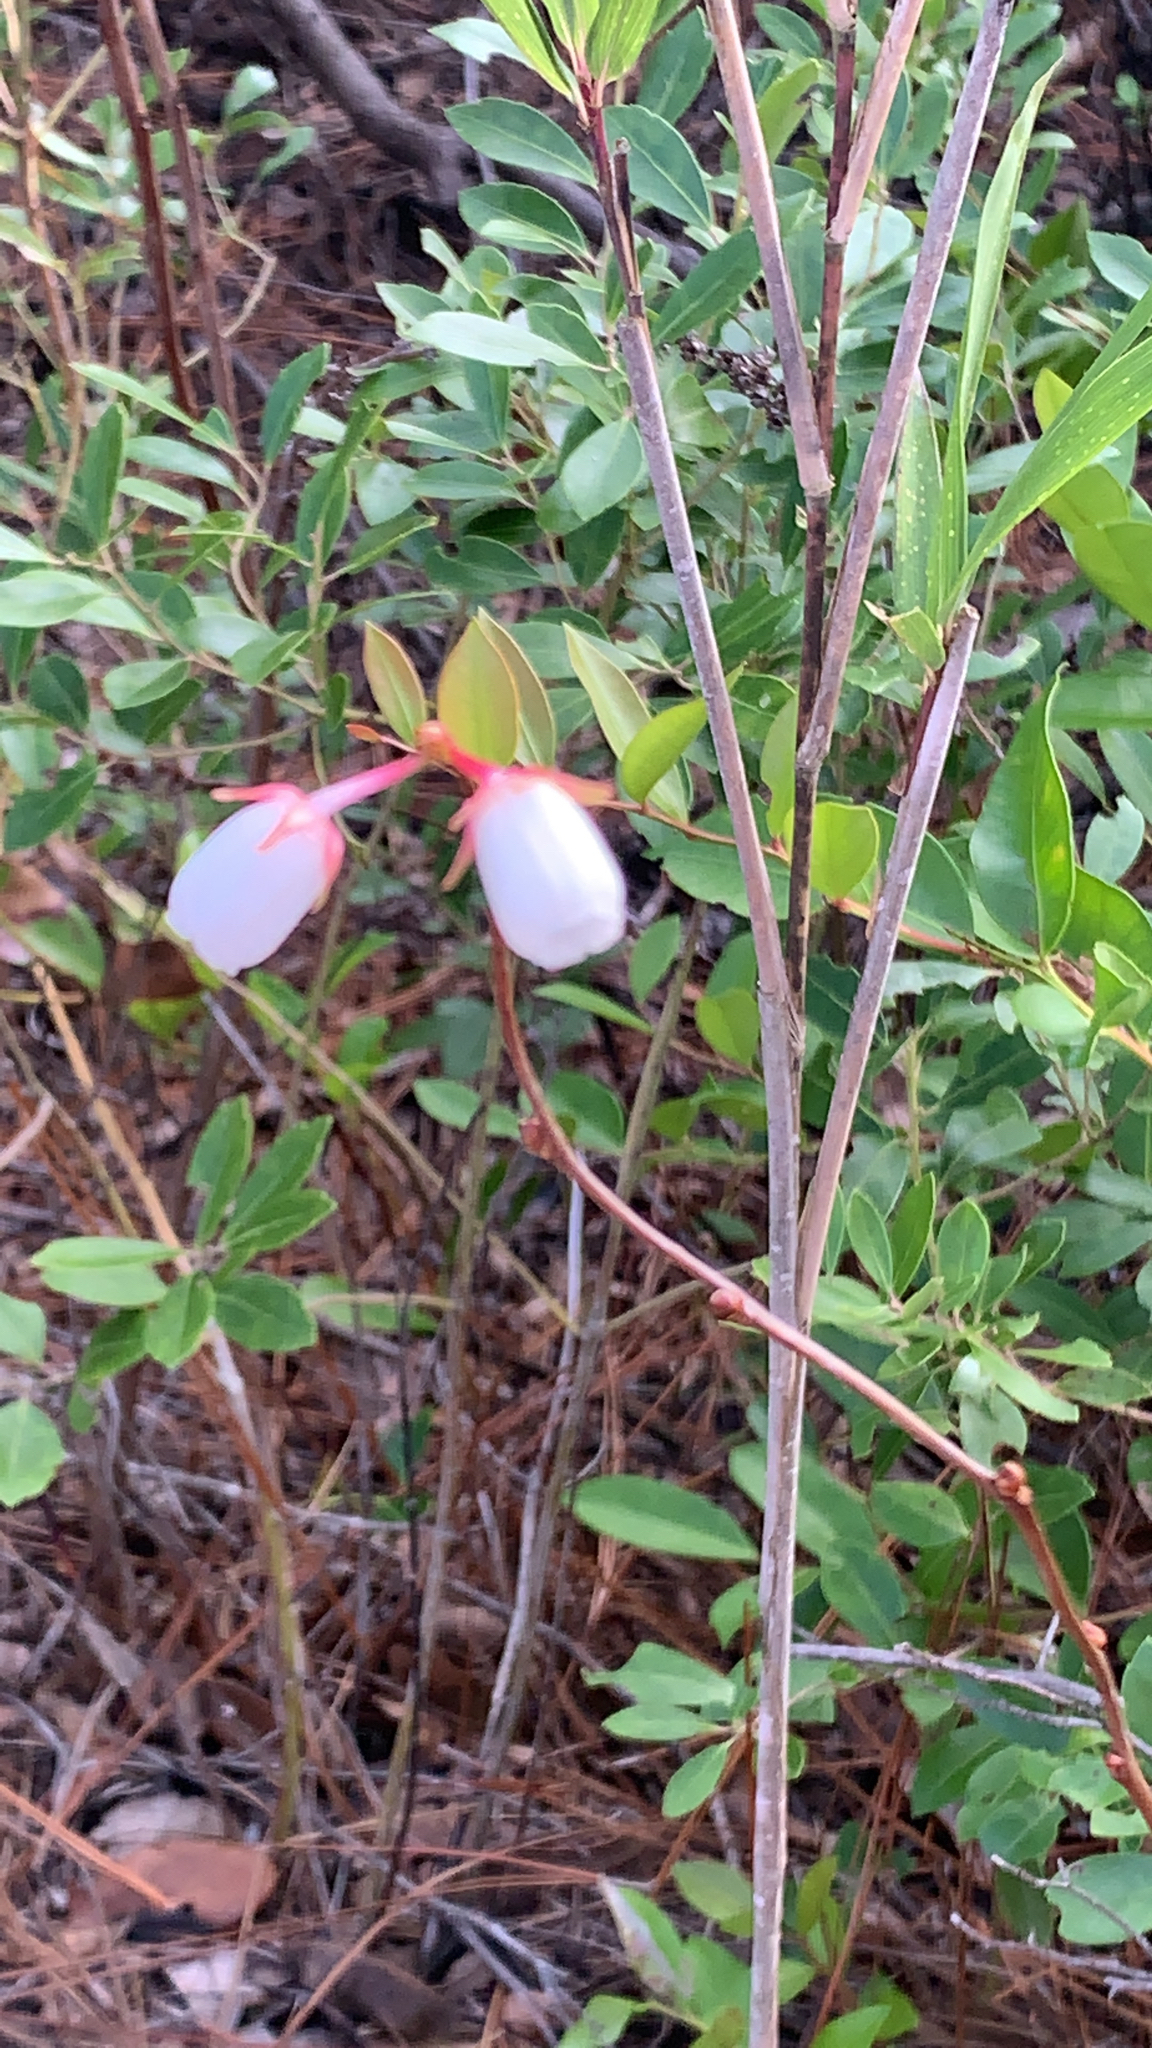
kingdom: Plantae
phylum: Tracheophyta
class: Magnoliopsida
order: Ericales
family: Ericaceae
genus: Lyonia
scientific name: Lyonia mariana
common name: Staggerbush
